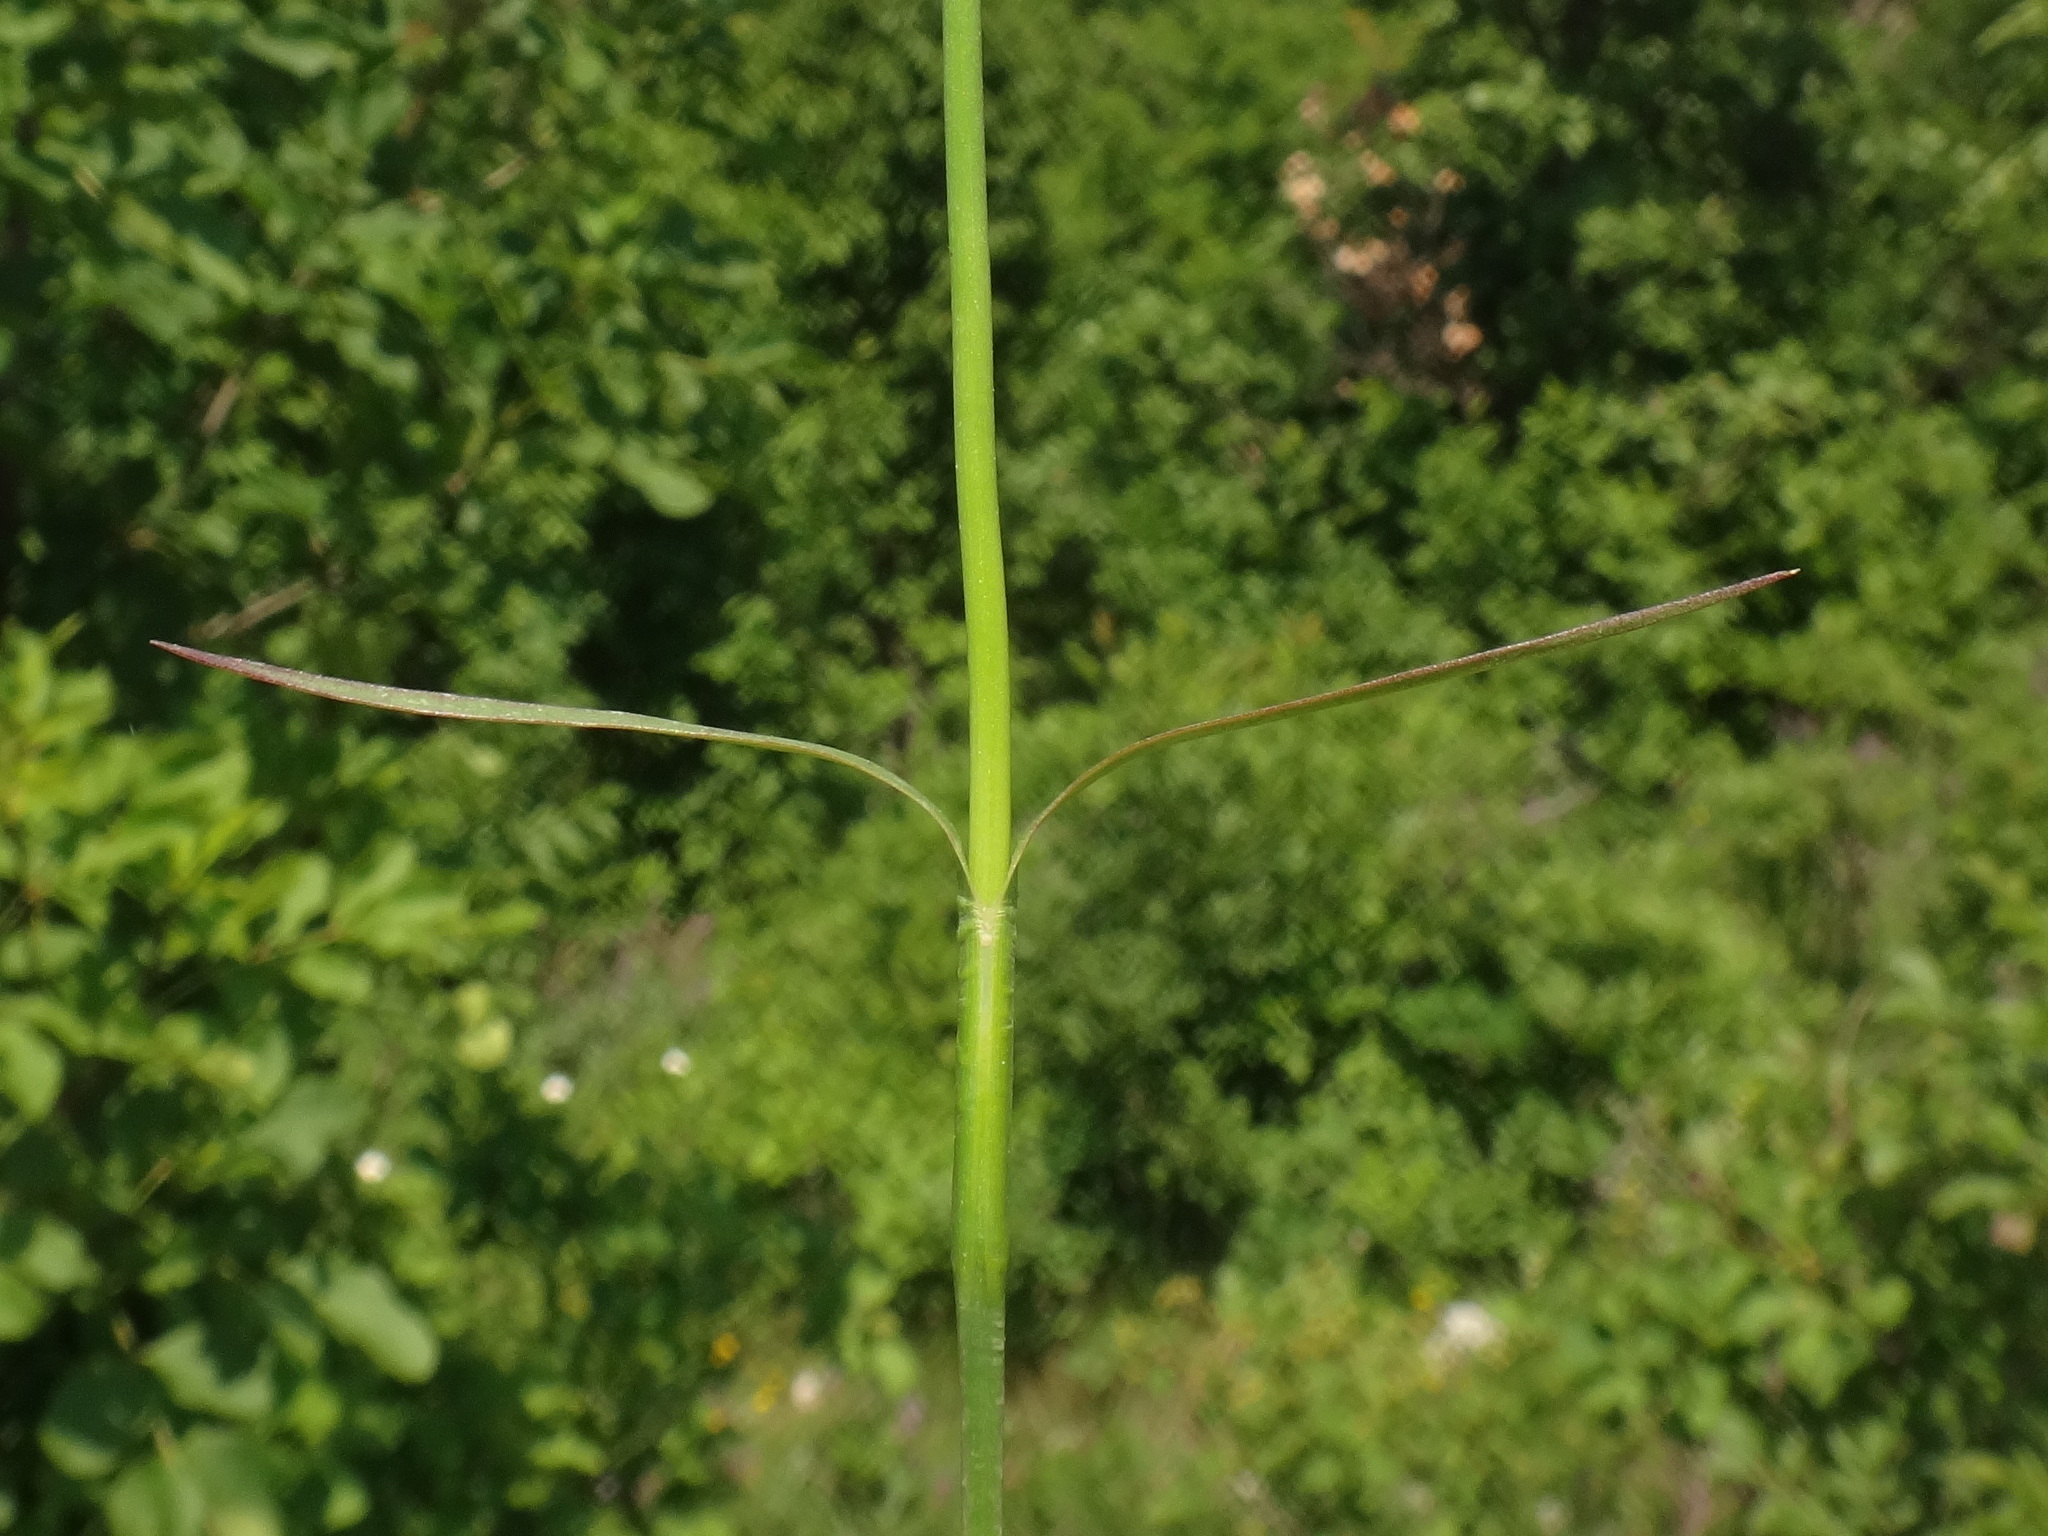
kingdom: Plantae
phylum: Tracheophyta
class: Magnoliopsida
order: Caryophyllales
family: Caryophyllaceae
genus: Dianthus
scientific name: Dianthus carthusianorum
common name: Carthusian pink
